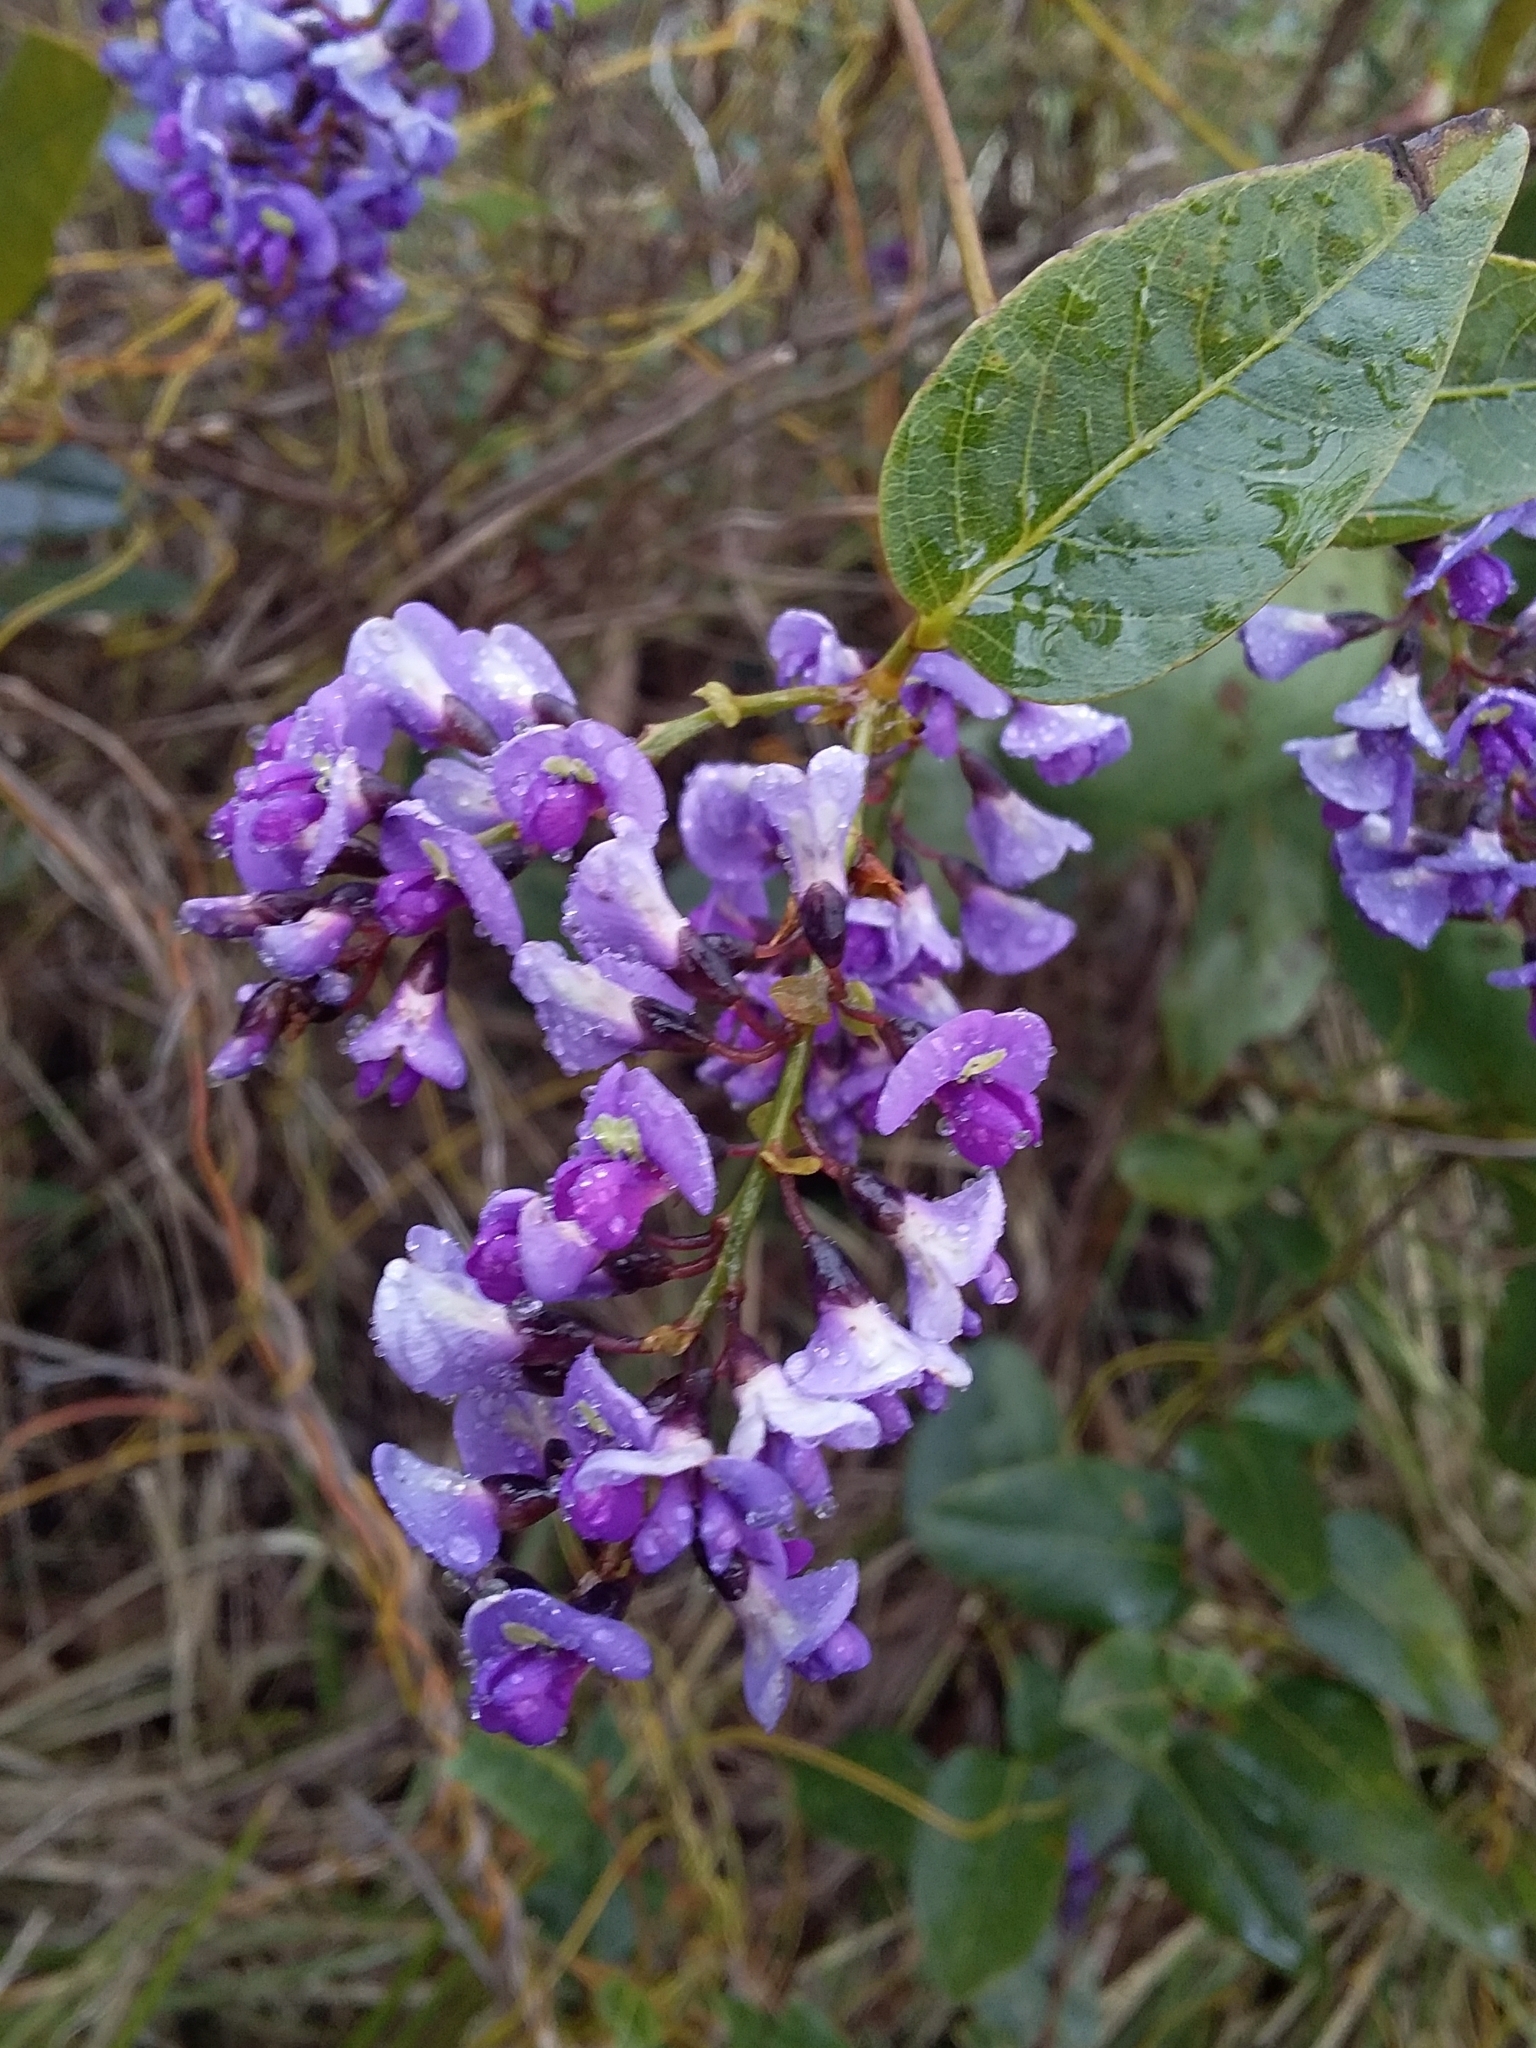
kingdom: Plantae
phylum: Tracheophyta
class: Magnoliopsida
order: Fabales
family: Fabaceae
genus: Hardenbergia
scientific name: Hardenbergia violacea
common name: Coral-pea
